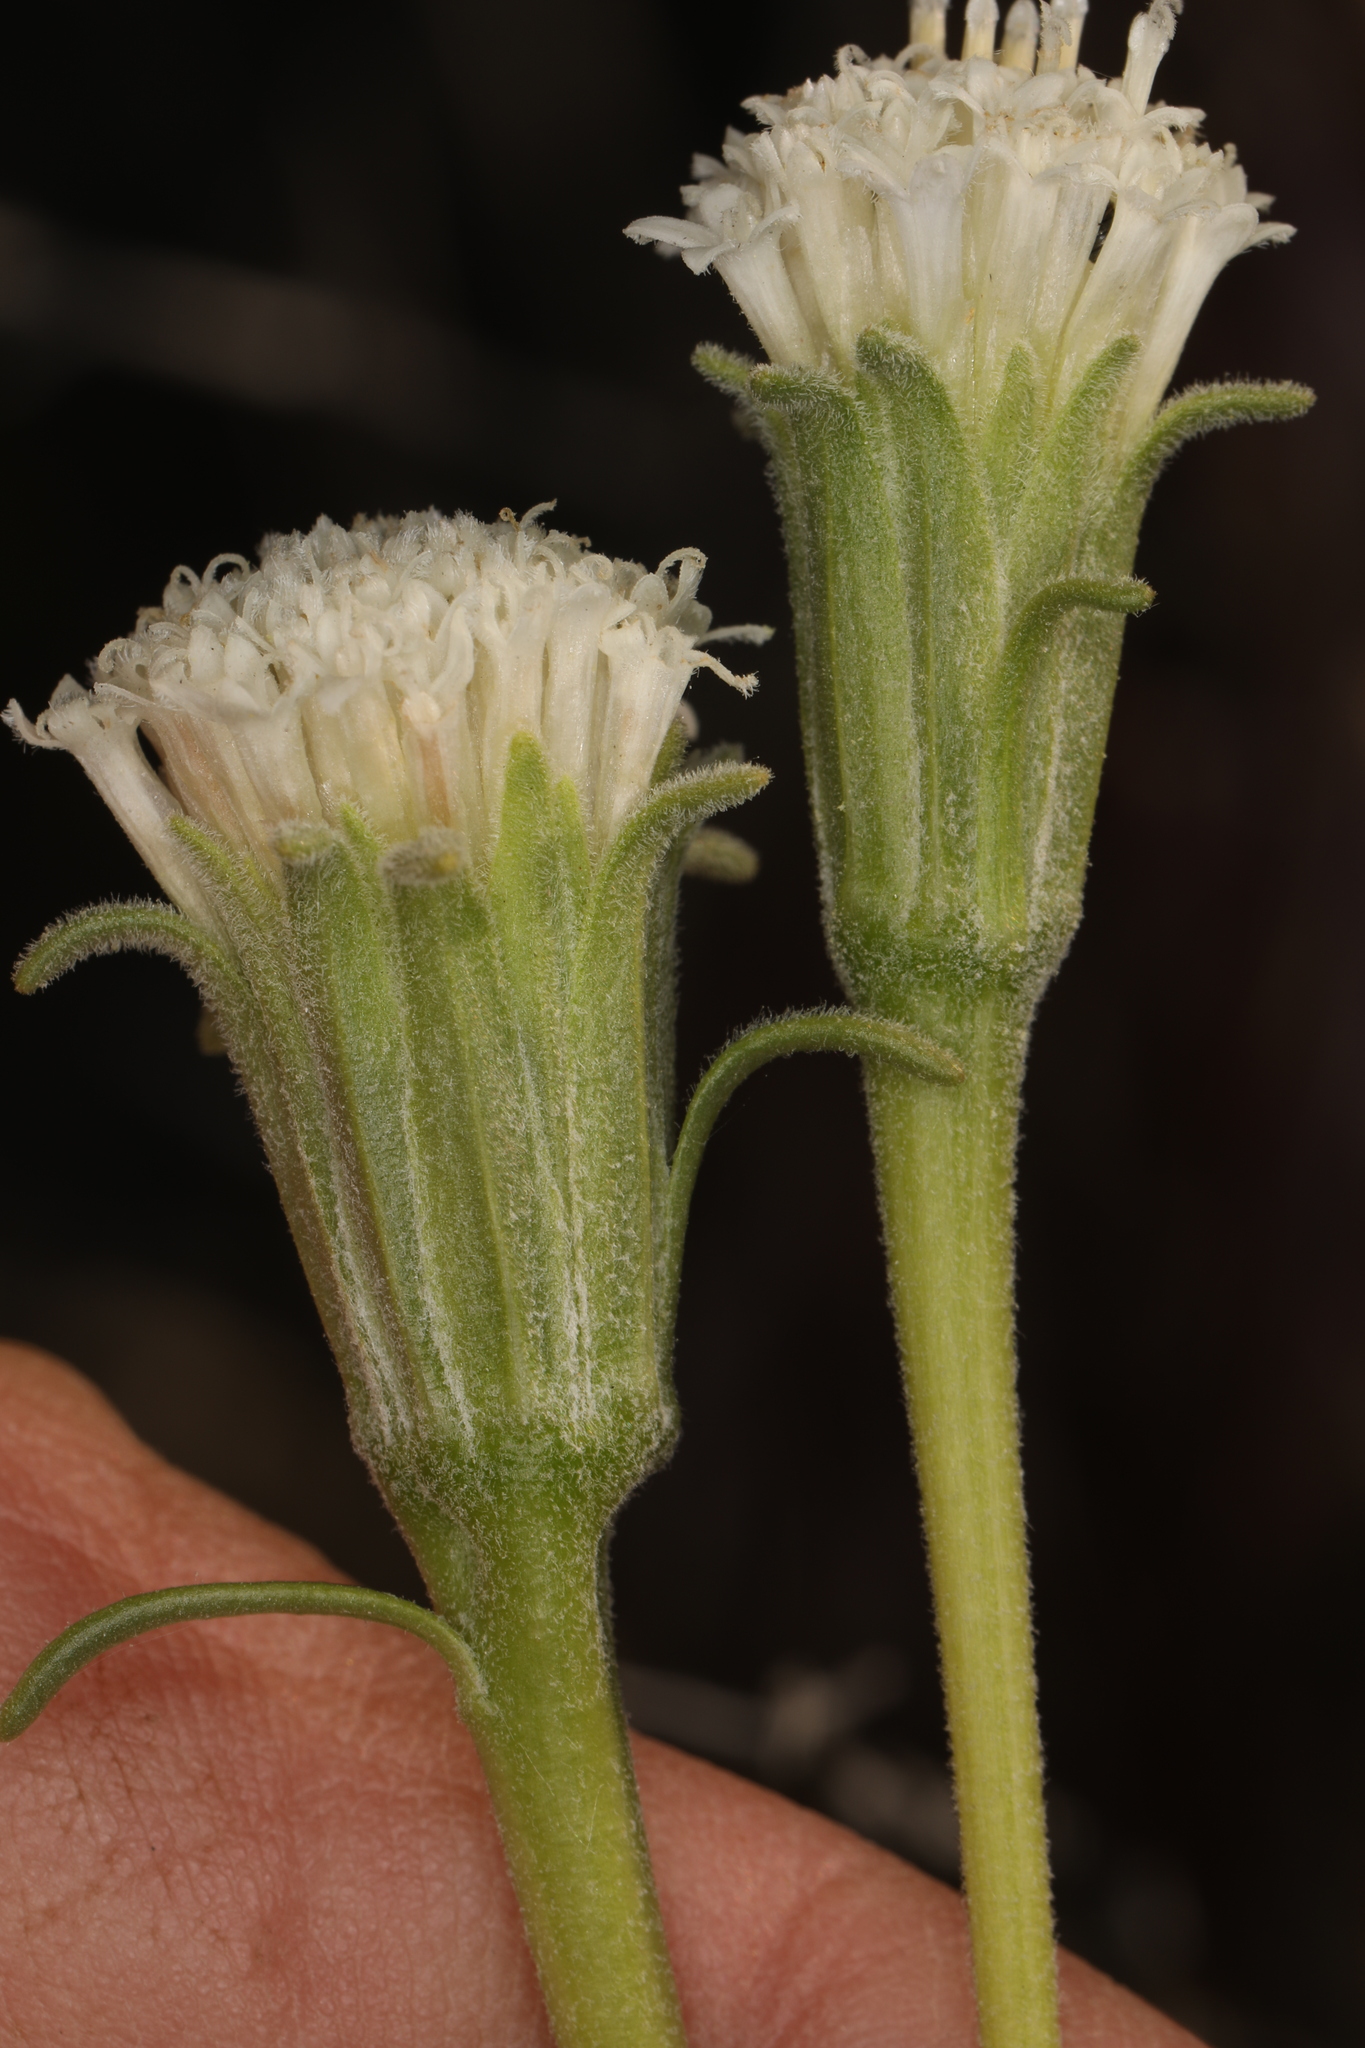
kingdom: Plantae
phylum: Tracheophyta
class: Magnoliopsida
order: Asterales
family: Asteraceae
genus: Chaenactis
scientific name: Chaenactis xantiana
